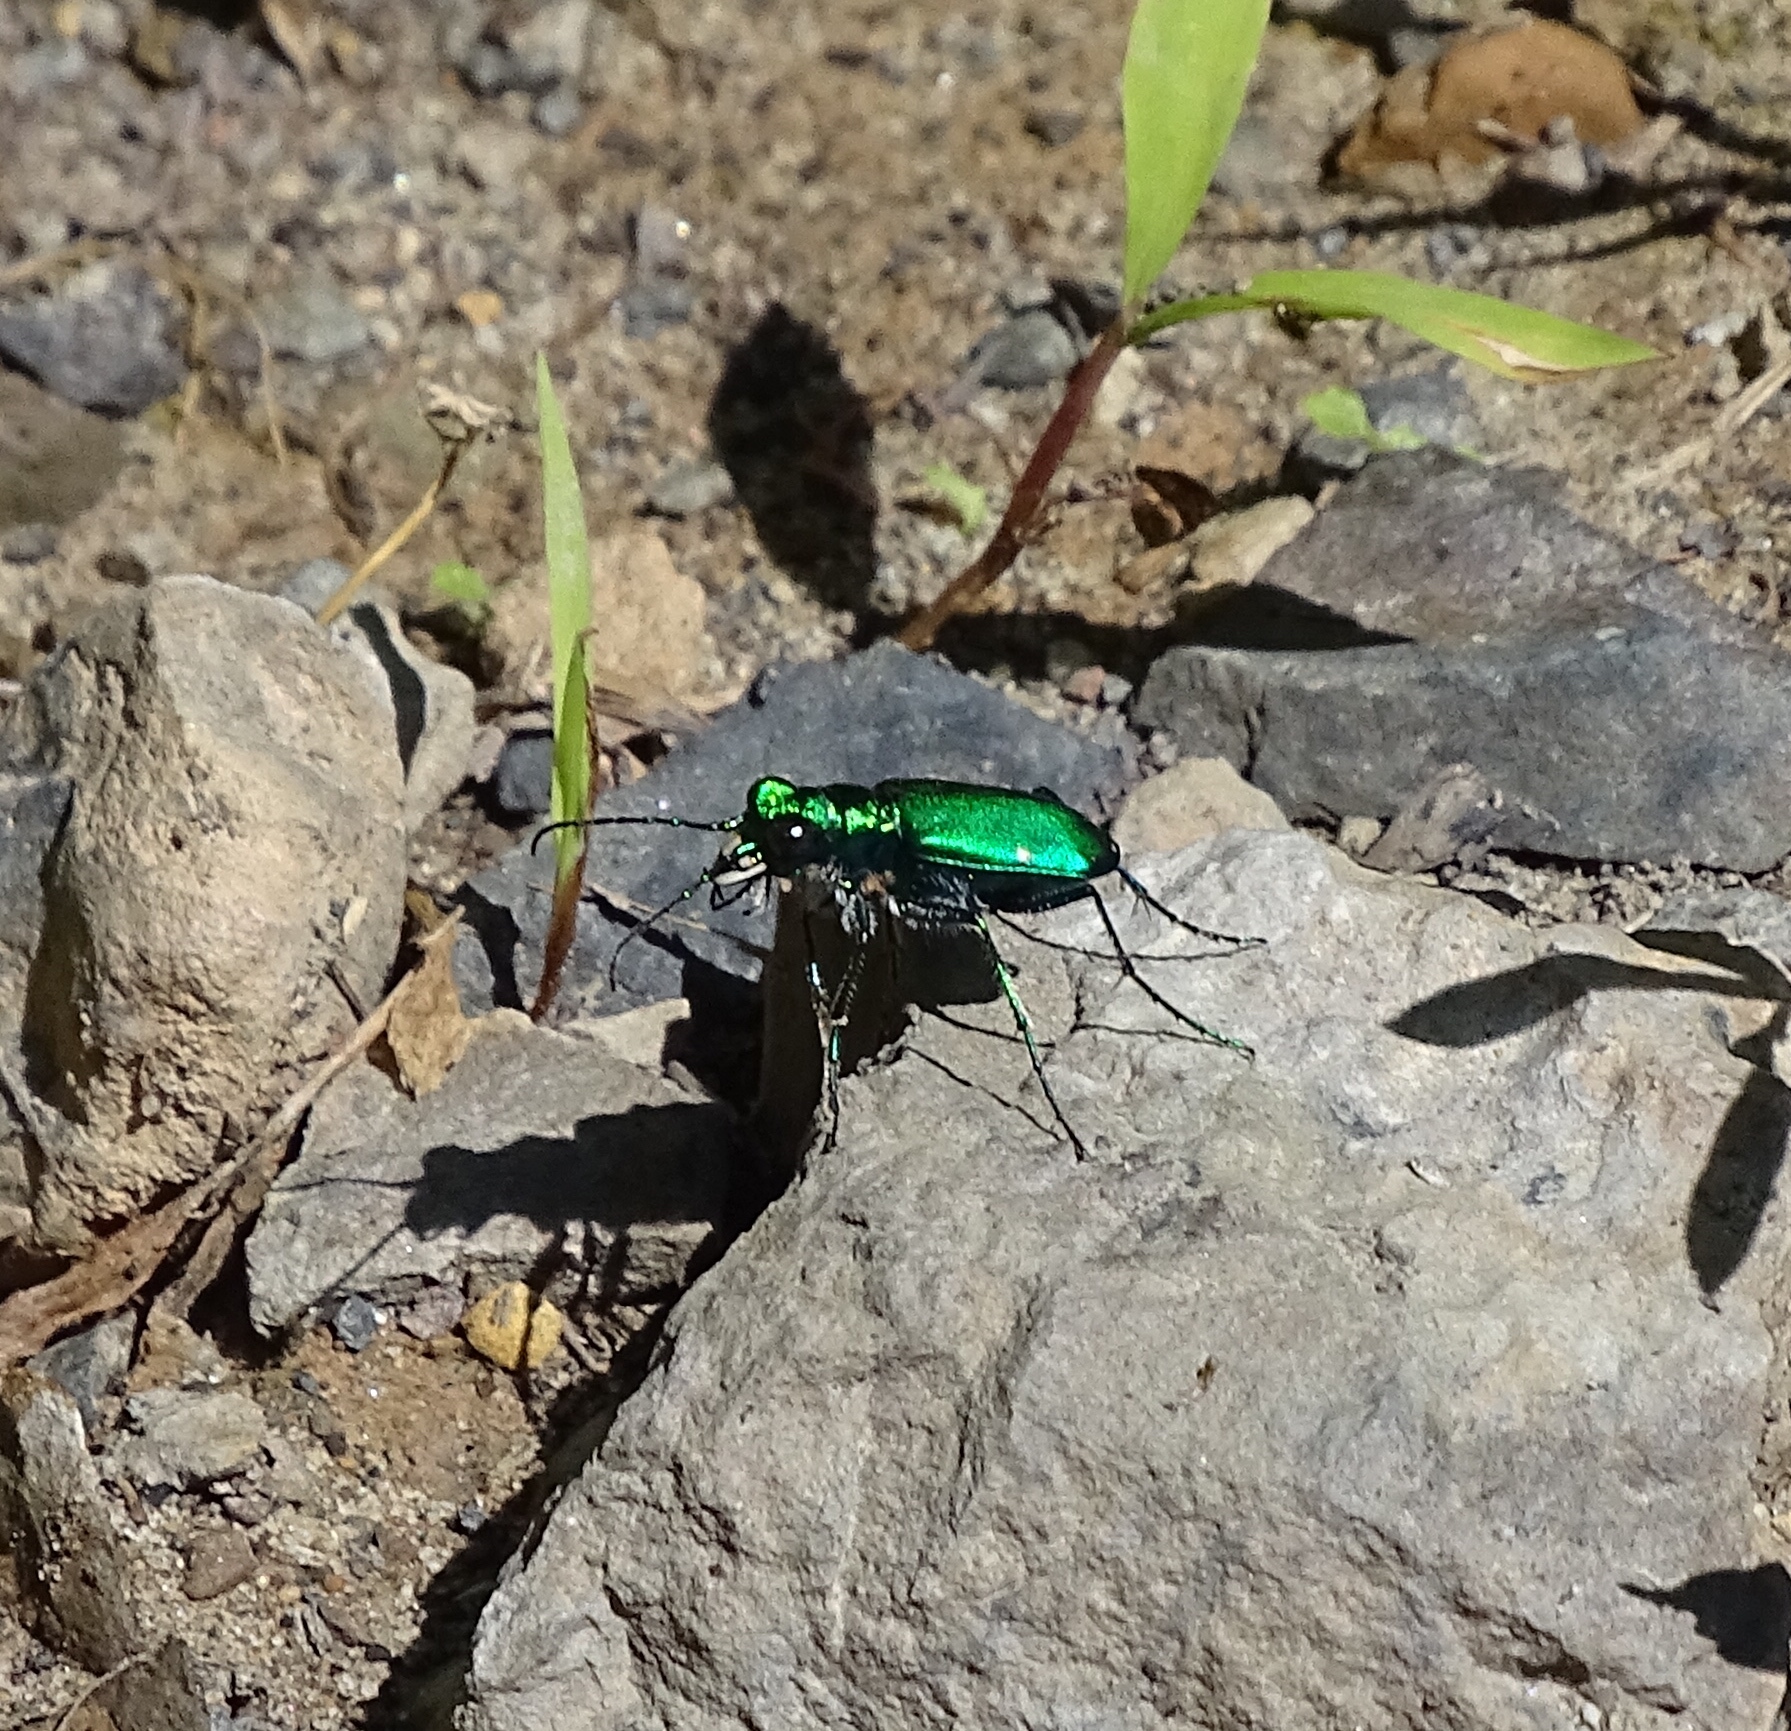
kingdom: Animalia
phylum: Arthropoda
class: Insecta
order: Coleoptera
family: Carabidae
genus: Cicindela
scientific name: Cicindela sexguttata
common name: Six-spotted tiger beetle
